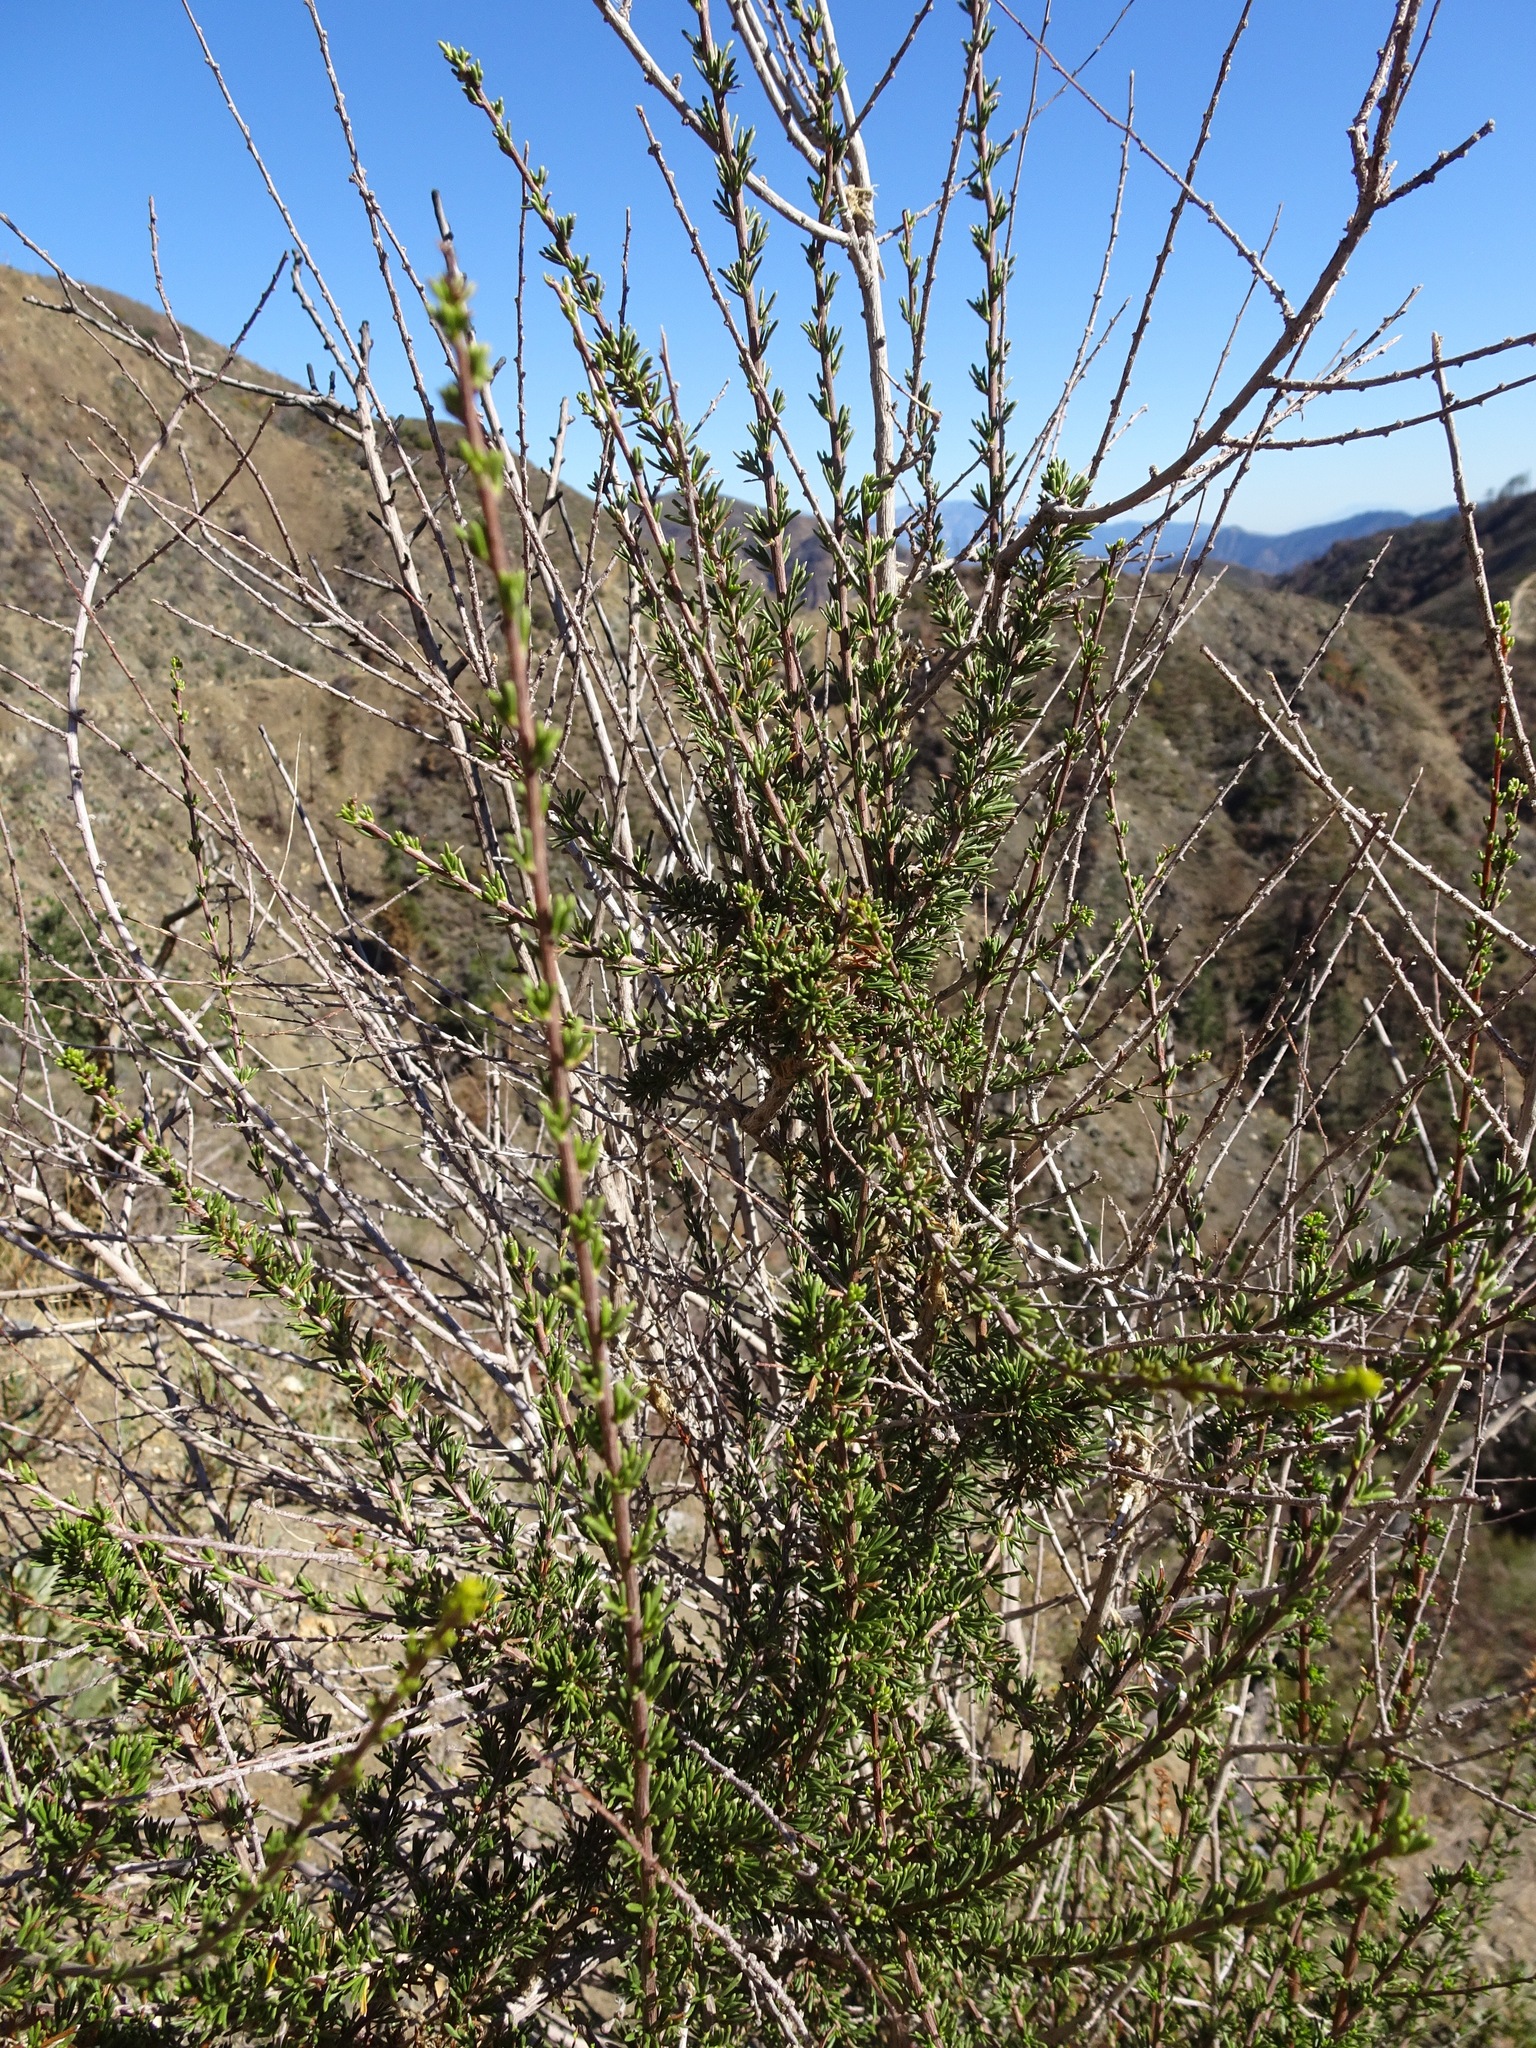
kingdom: Plantae
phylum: Tracheophyta
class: Magnoliopsida
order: Rosales
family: Rosaceae
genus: Adenostoma
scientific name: Adenostoma fasciculatum
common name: Chamise
